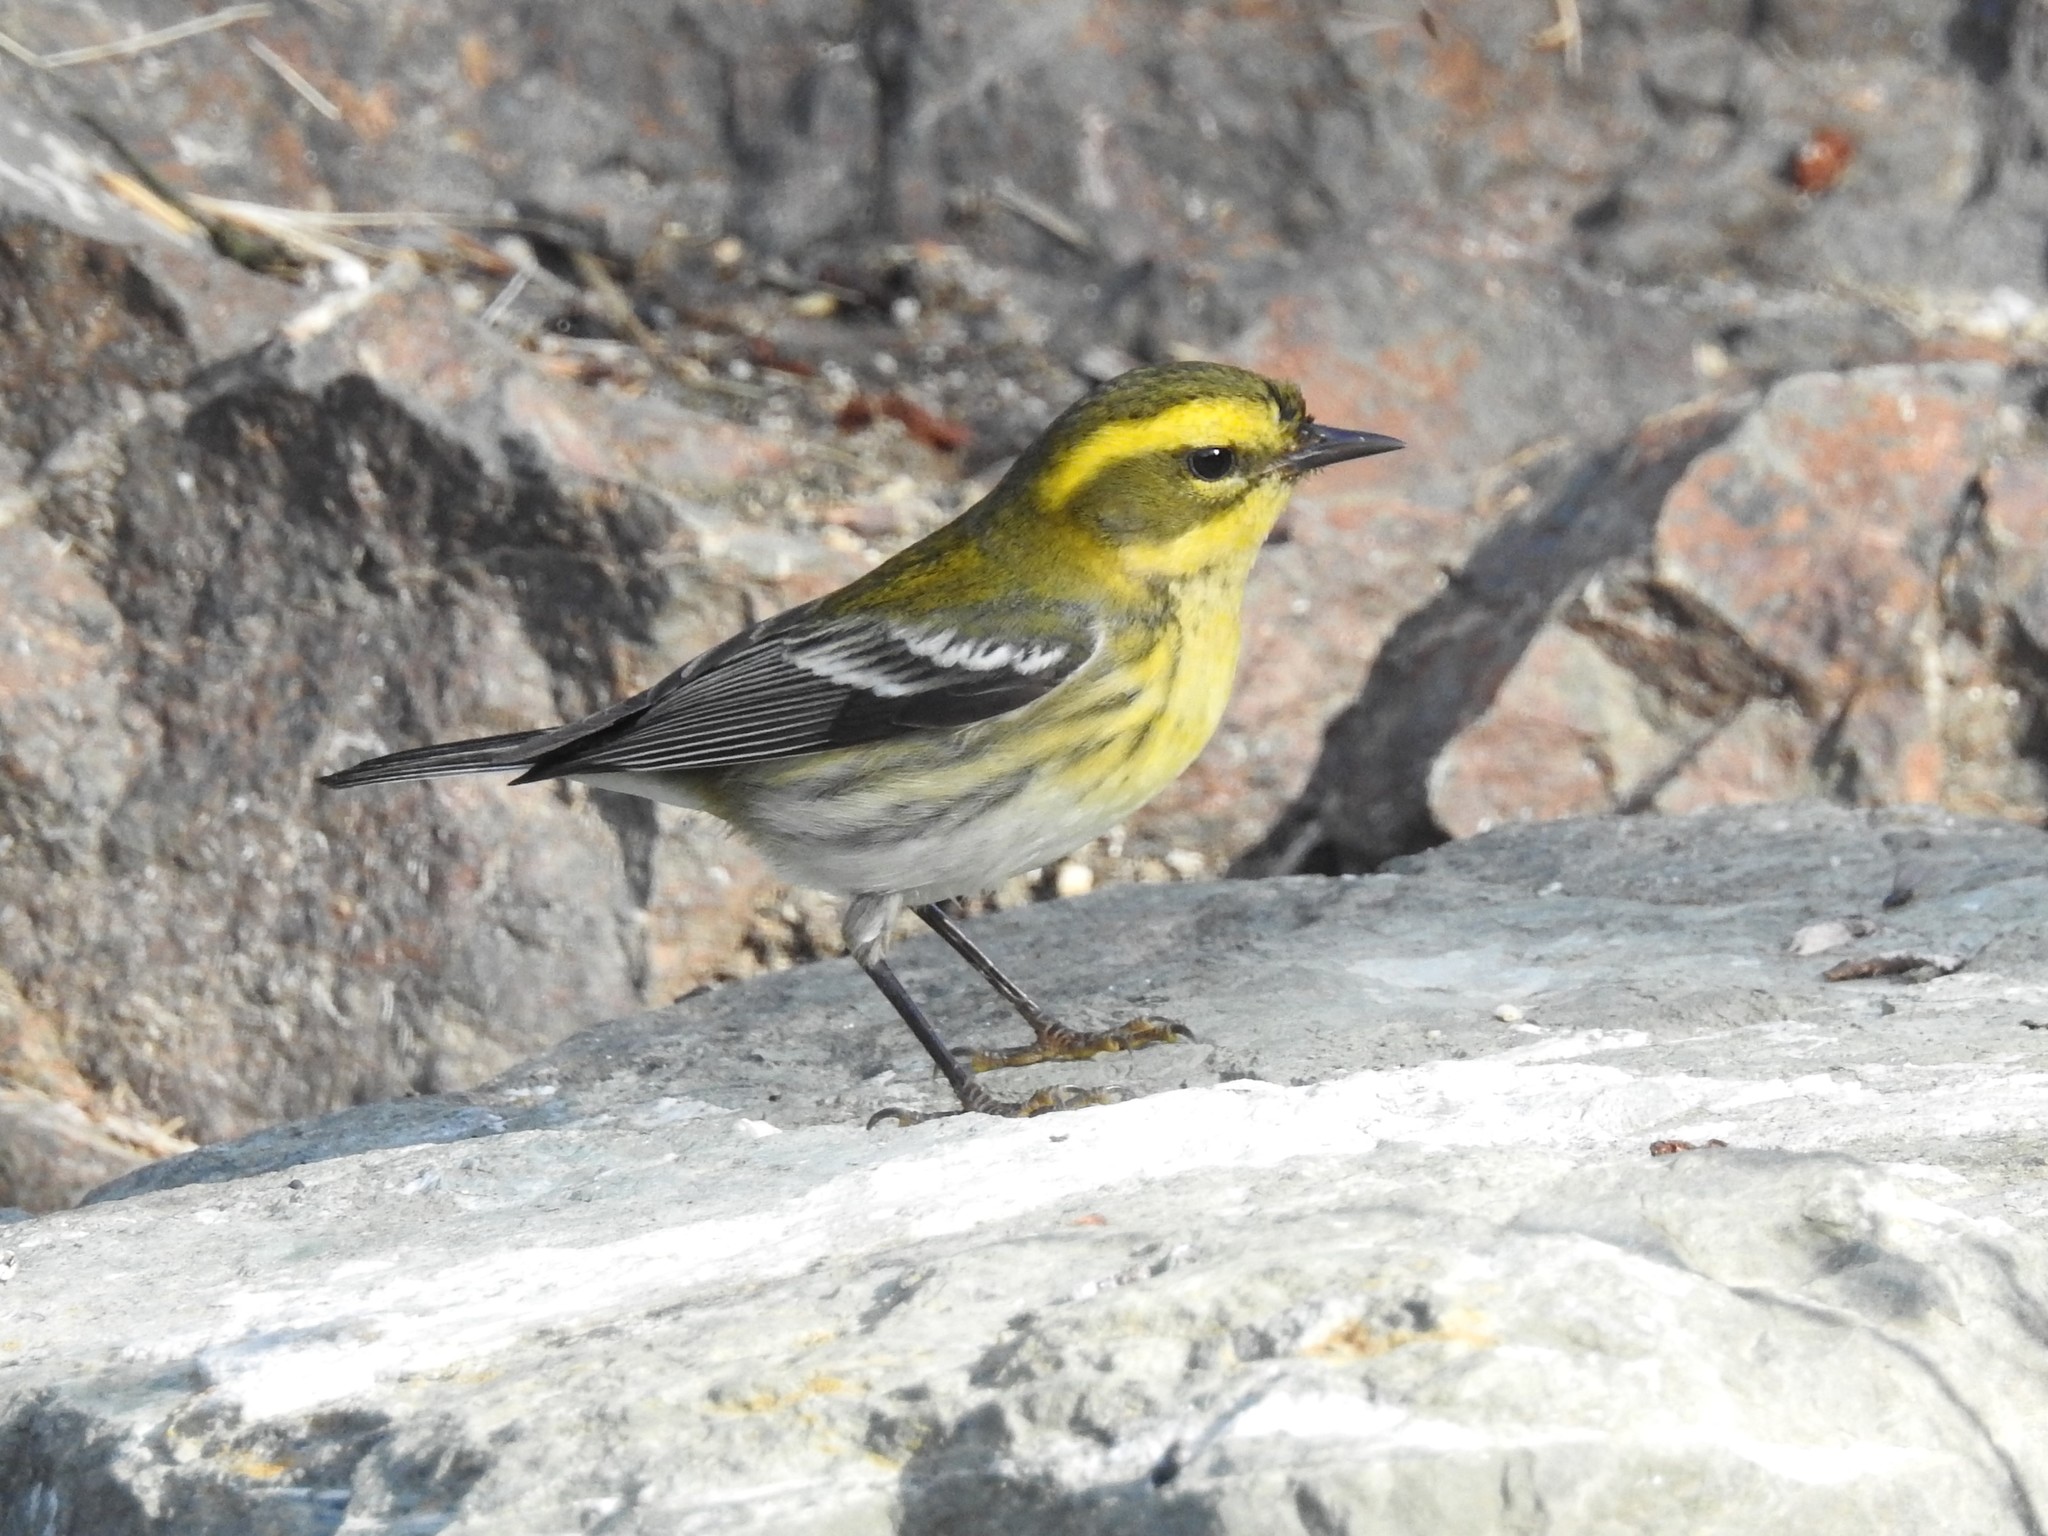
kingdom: Animalia
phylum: Chordata
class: Aves
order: Passeriformes
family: Parulidae
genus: Setophaga
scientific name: Setophaga townsendi
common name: Townsend's warbler
